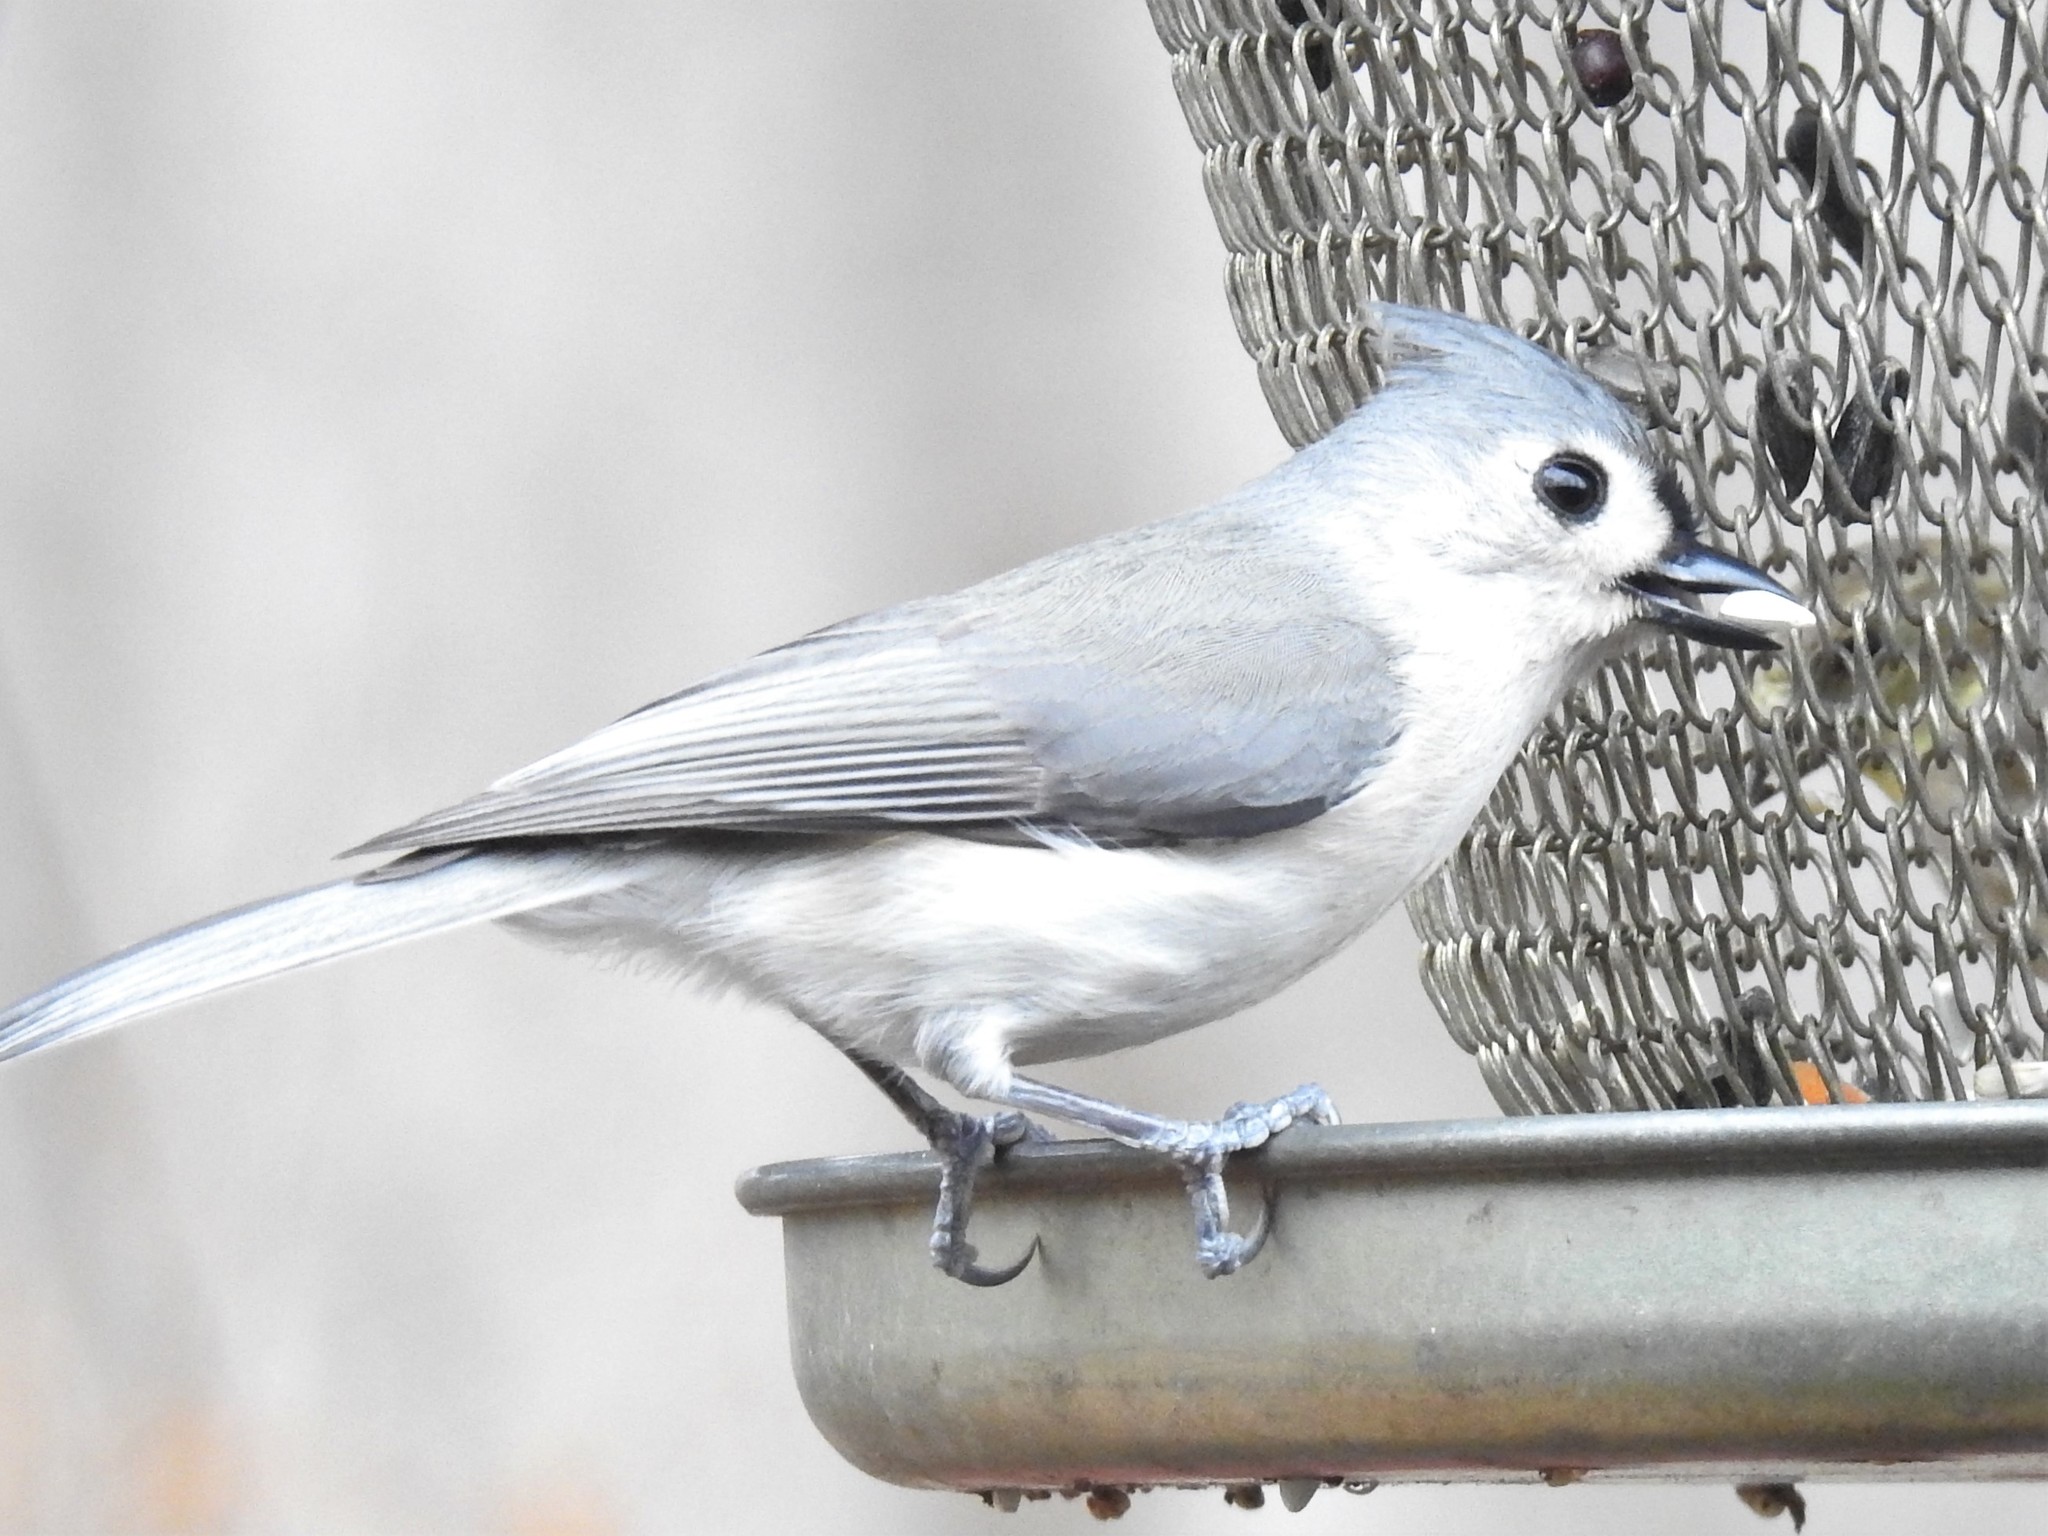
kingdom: Animalia
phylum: Chordata
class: Aves
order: Passeriformes
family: Paridae
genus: Baeolophus
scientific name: Baeolophus bicolor
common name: Tufted titmouse
